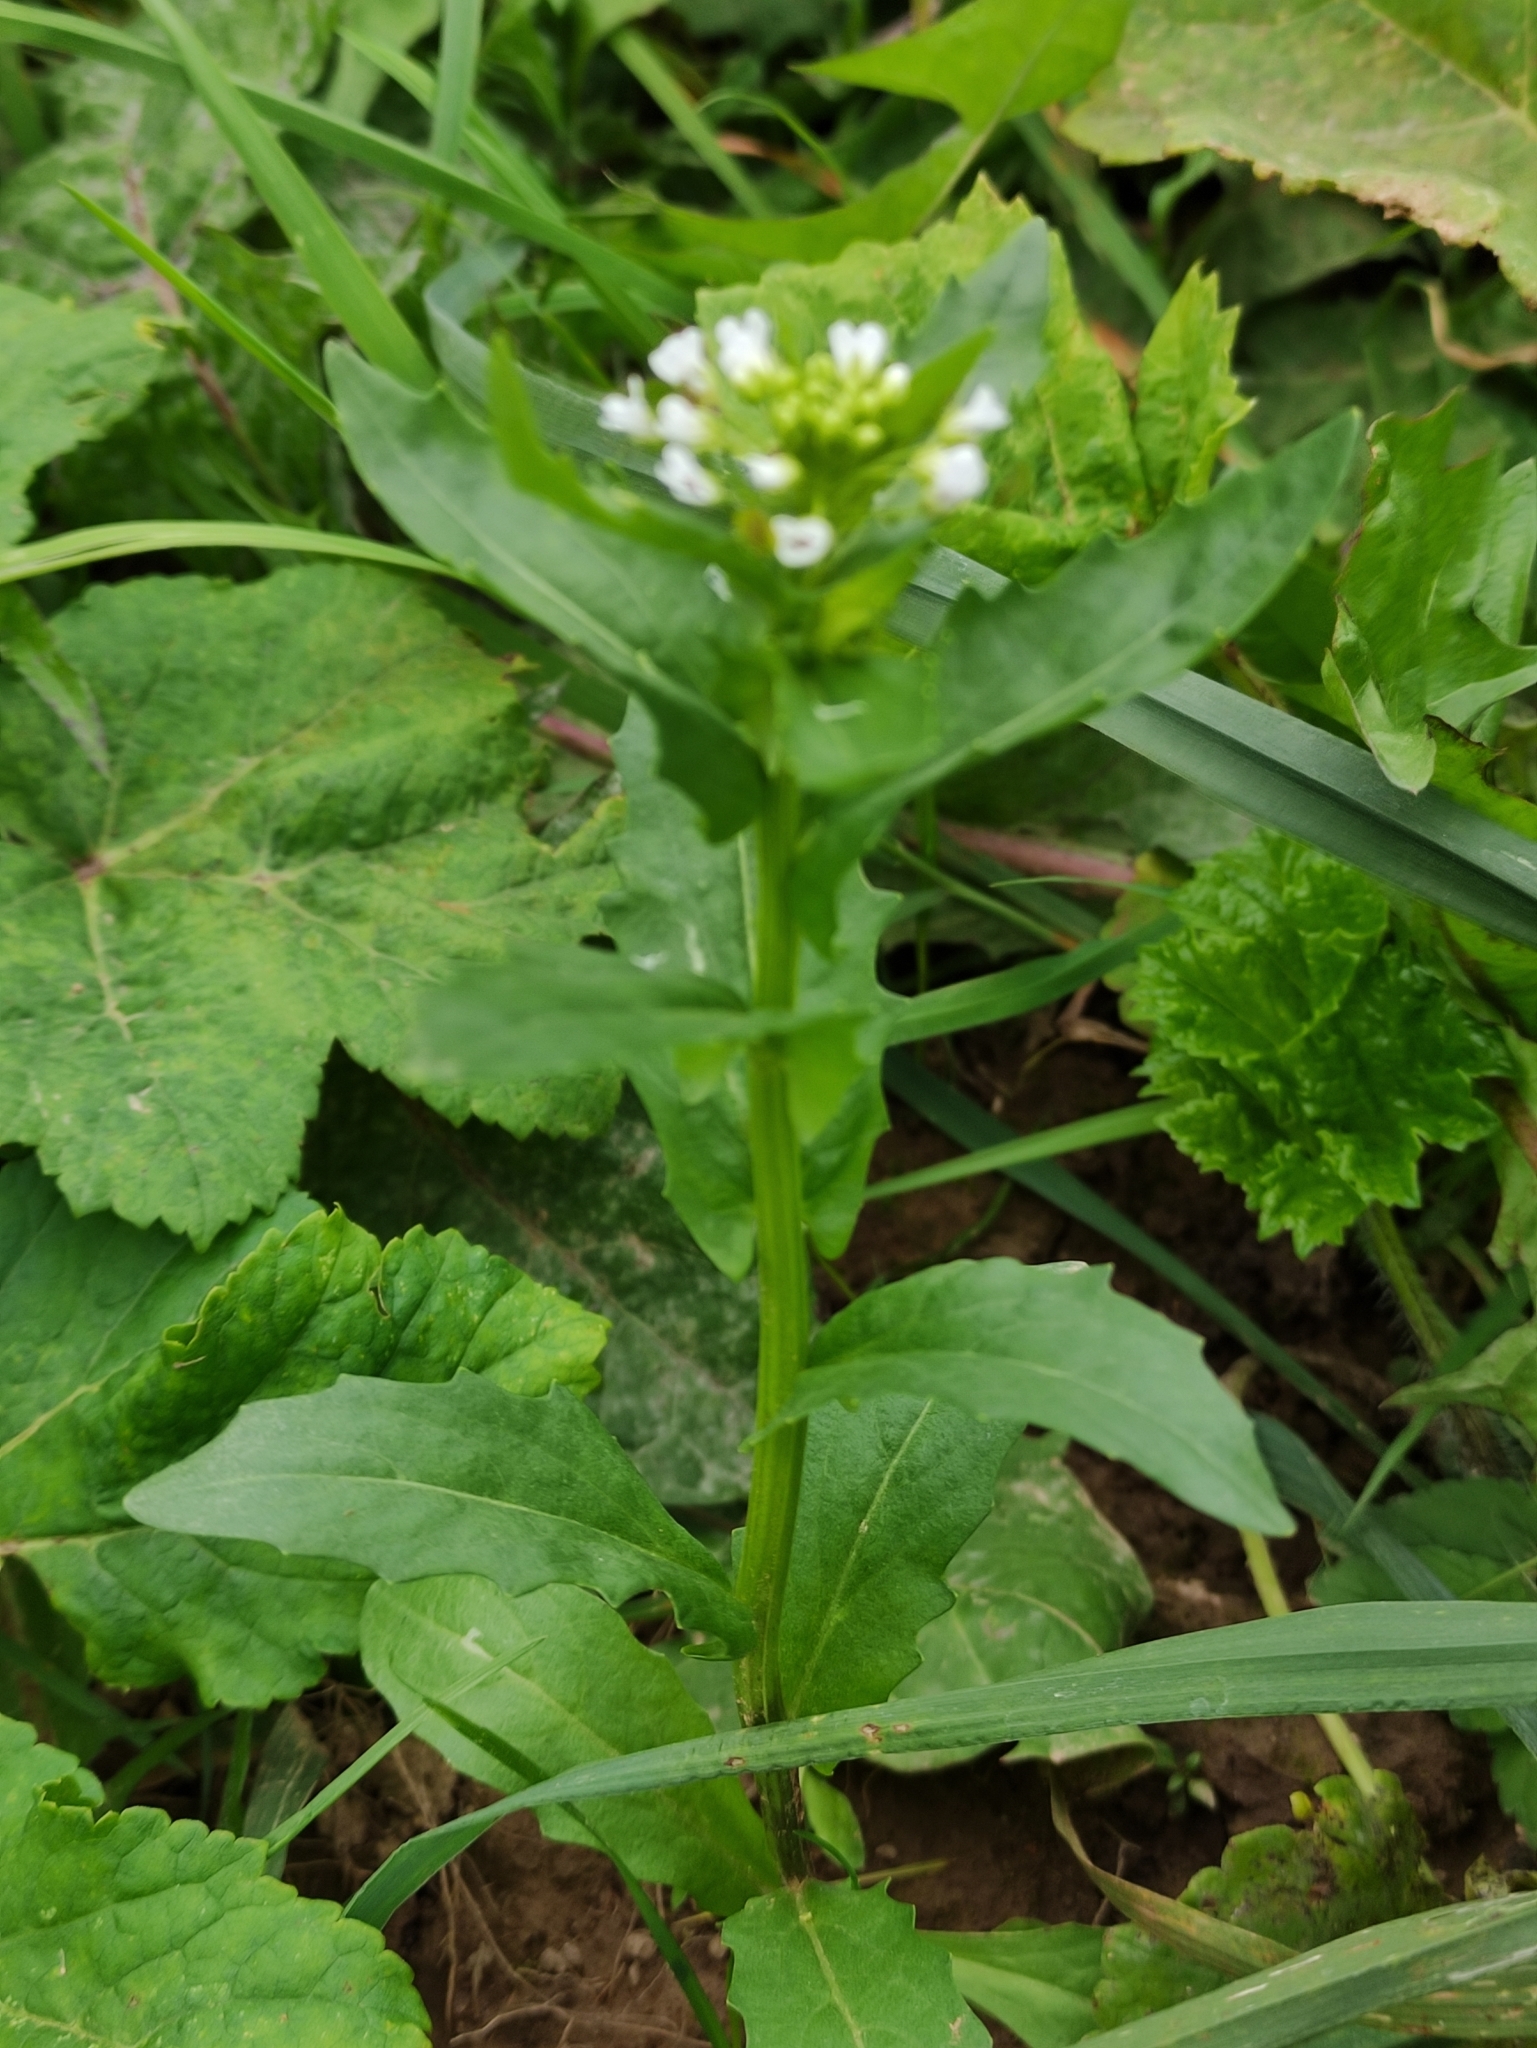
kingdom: Plantae
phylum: Tracheophyta
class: Magnoliopsida
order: Brassicales
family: Brassicaceae
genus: Thlaspi
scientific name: Thlaspi arvense
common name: Field pennycress
